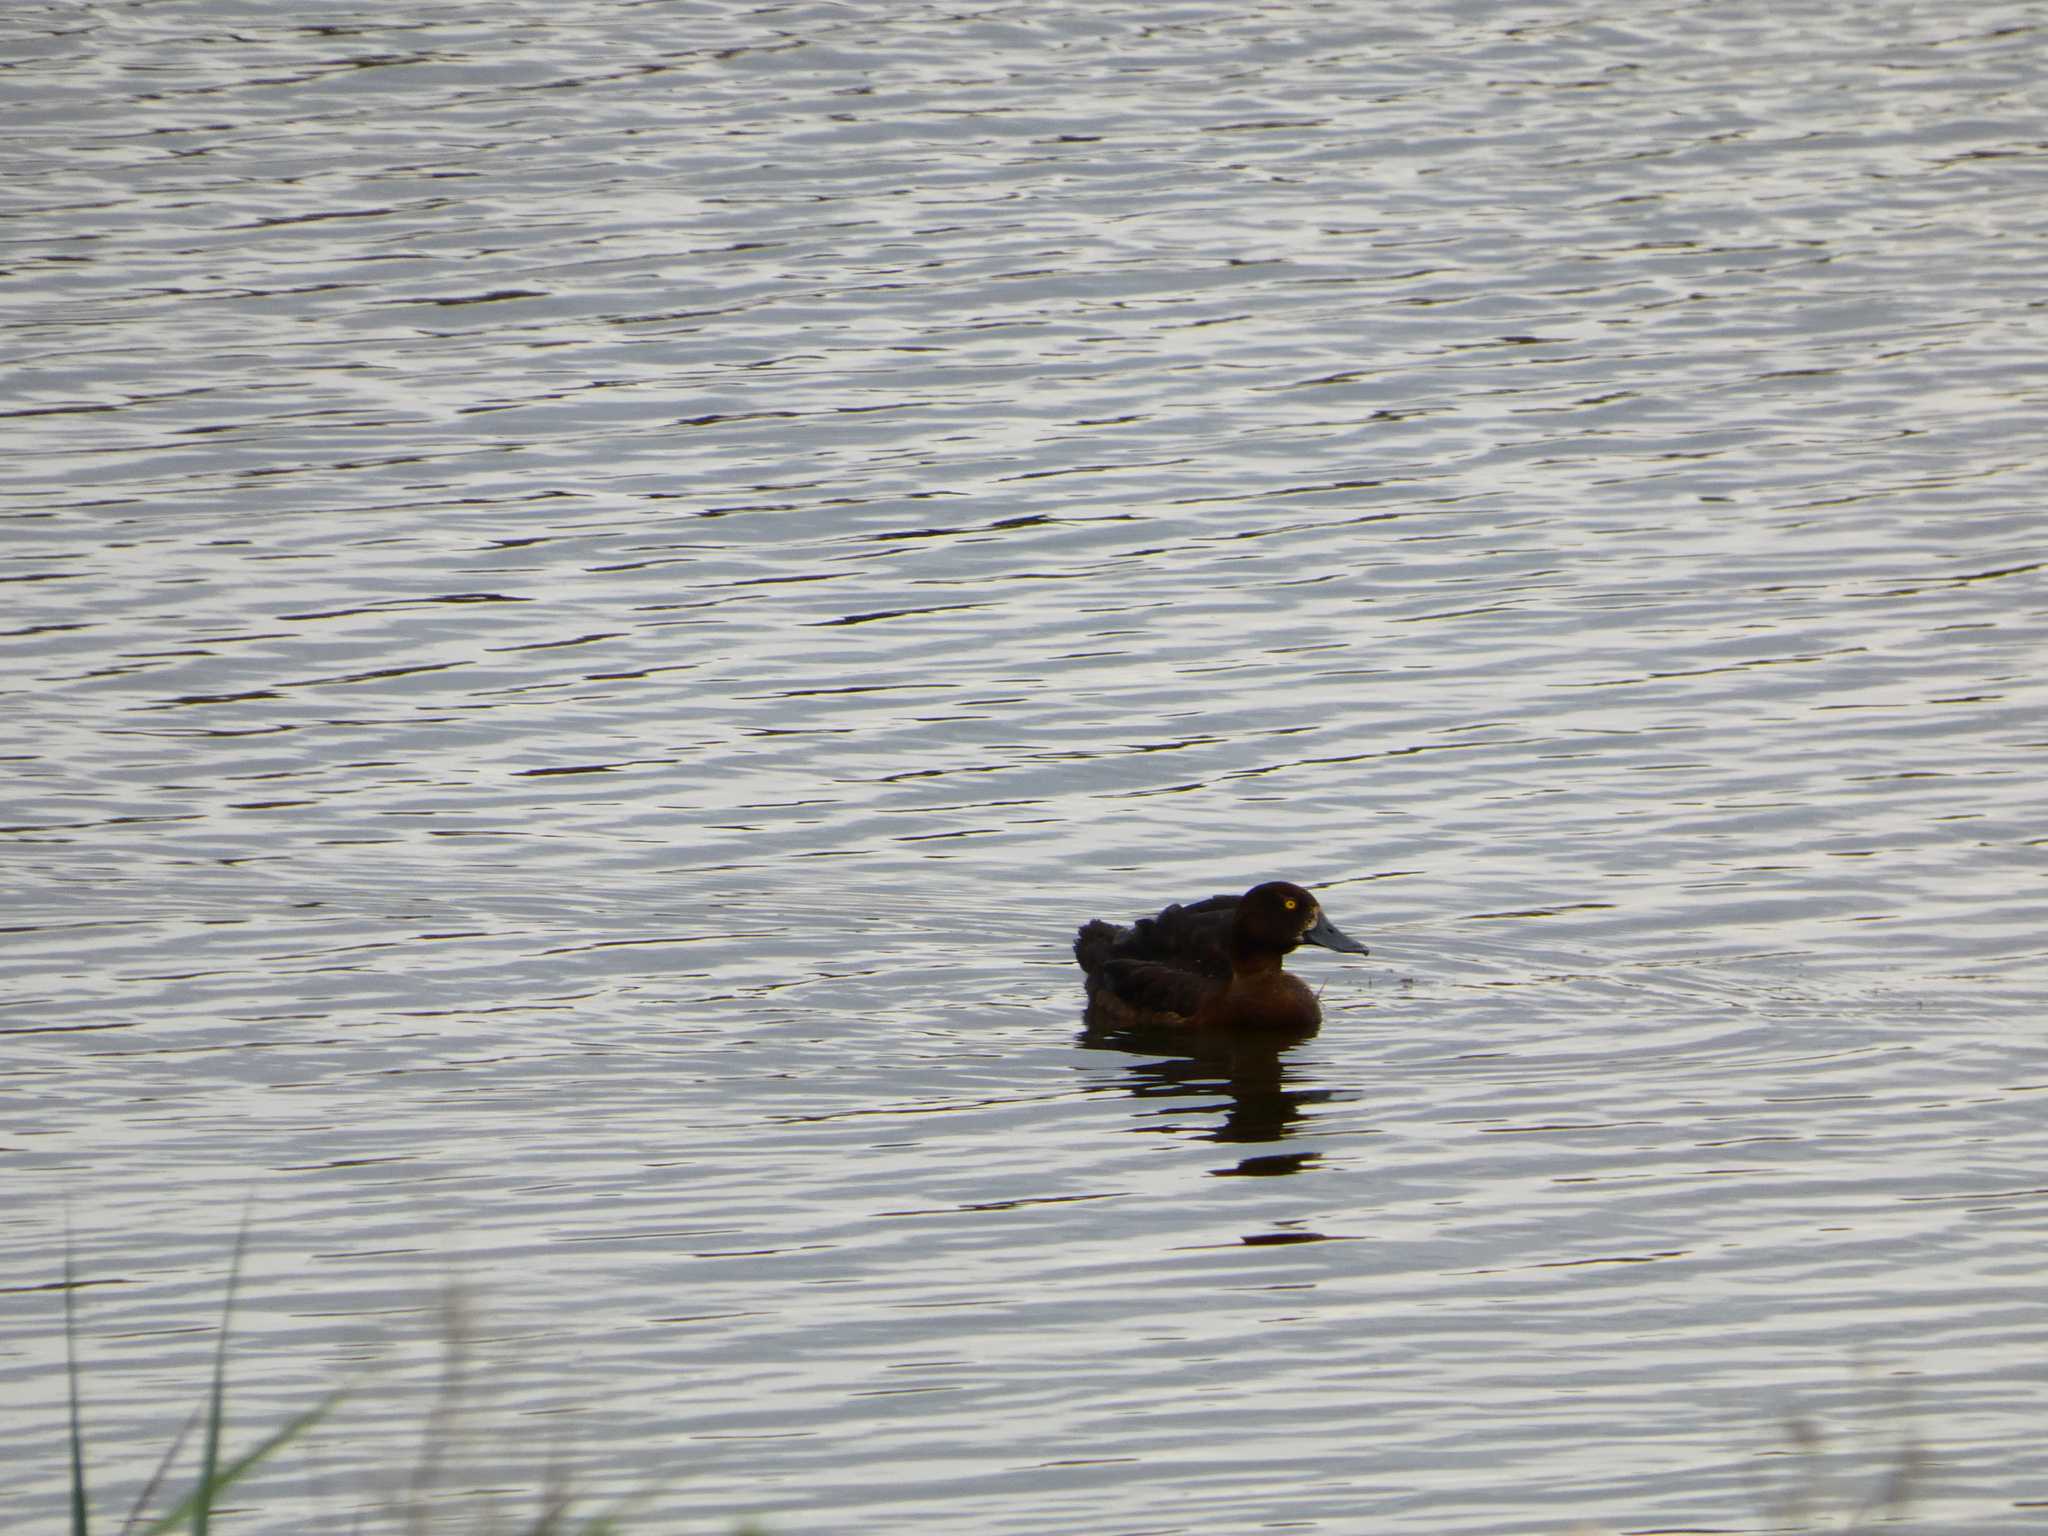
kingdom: Animalia
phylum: Chordata
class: Aves
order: Anseriformes
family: Anatidae
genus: Aythya
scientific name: Aythya fuligula
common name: Tufted duck
